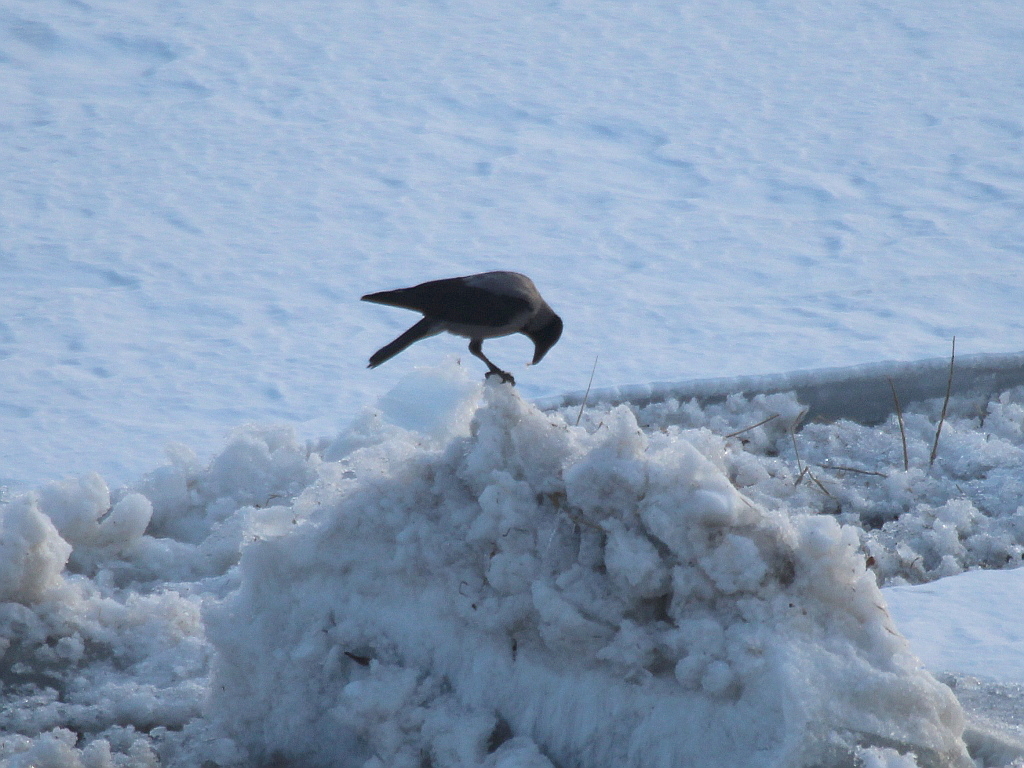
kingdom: Animalia
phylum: Chordata
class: Aves
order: Passeriformes
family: Corvidae
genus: Corvus
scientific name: Corvus cornix
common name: Hooded crow
